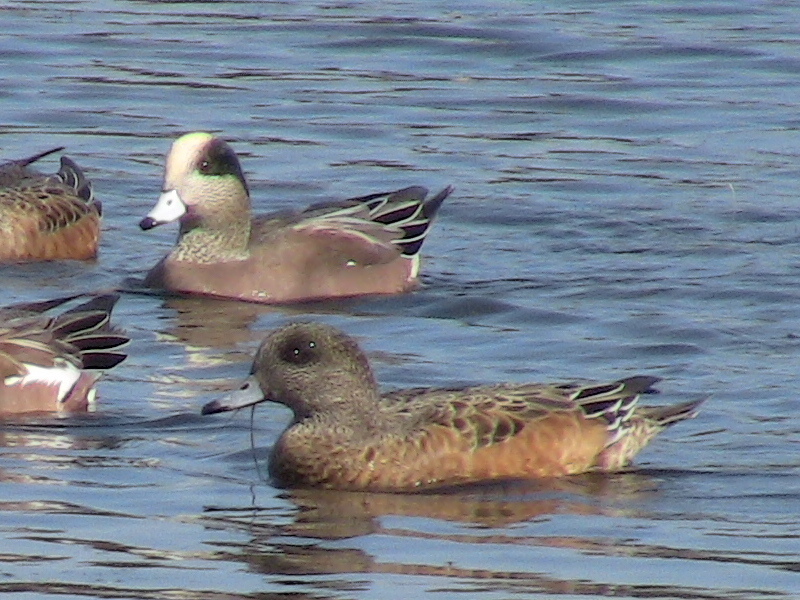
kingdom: Animalia
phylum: Chordata
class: Aves
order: Anseriformes
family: Anatidae
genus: Mareca
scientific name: Mareca americana
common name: American wigeon
